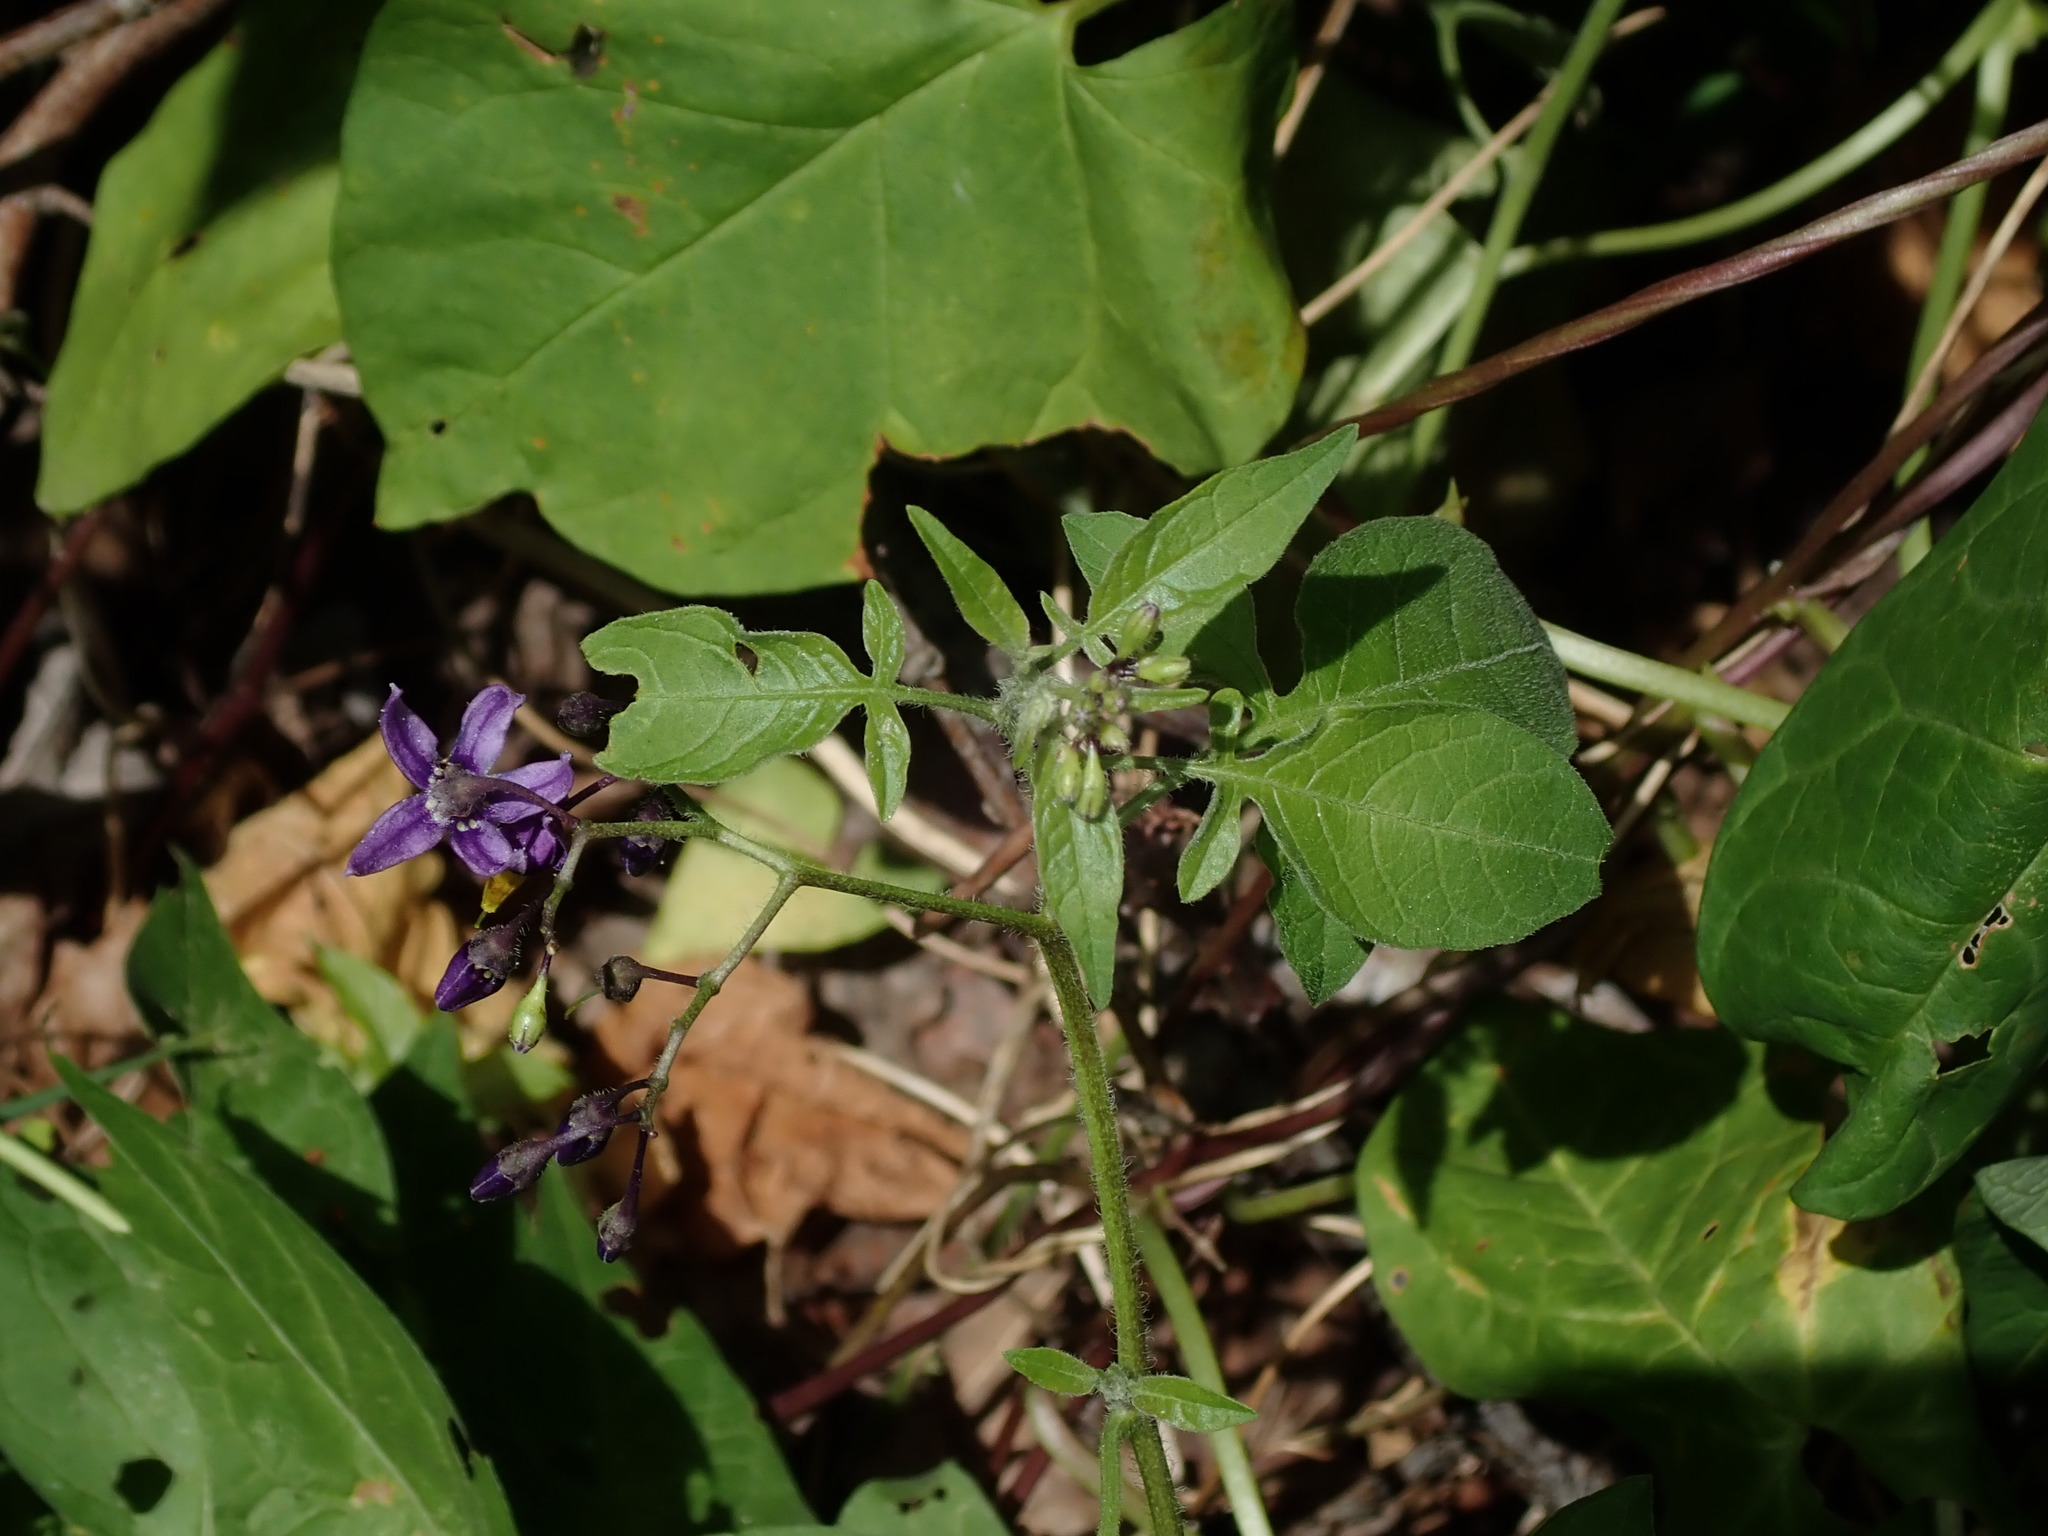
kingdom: Plantae
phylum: Tracheophyta
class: Magnoliopsida
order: Solanales
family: Solanaceae
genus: Solanum
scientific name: Solanum dulcamara
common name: Climbing nightshade
